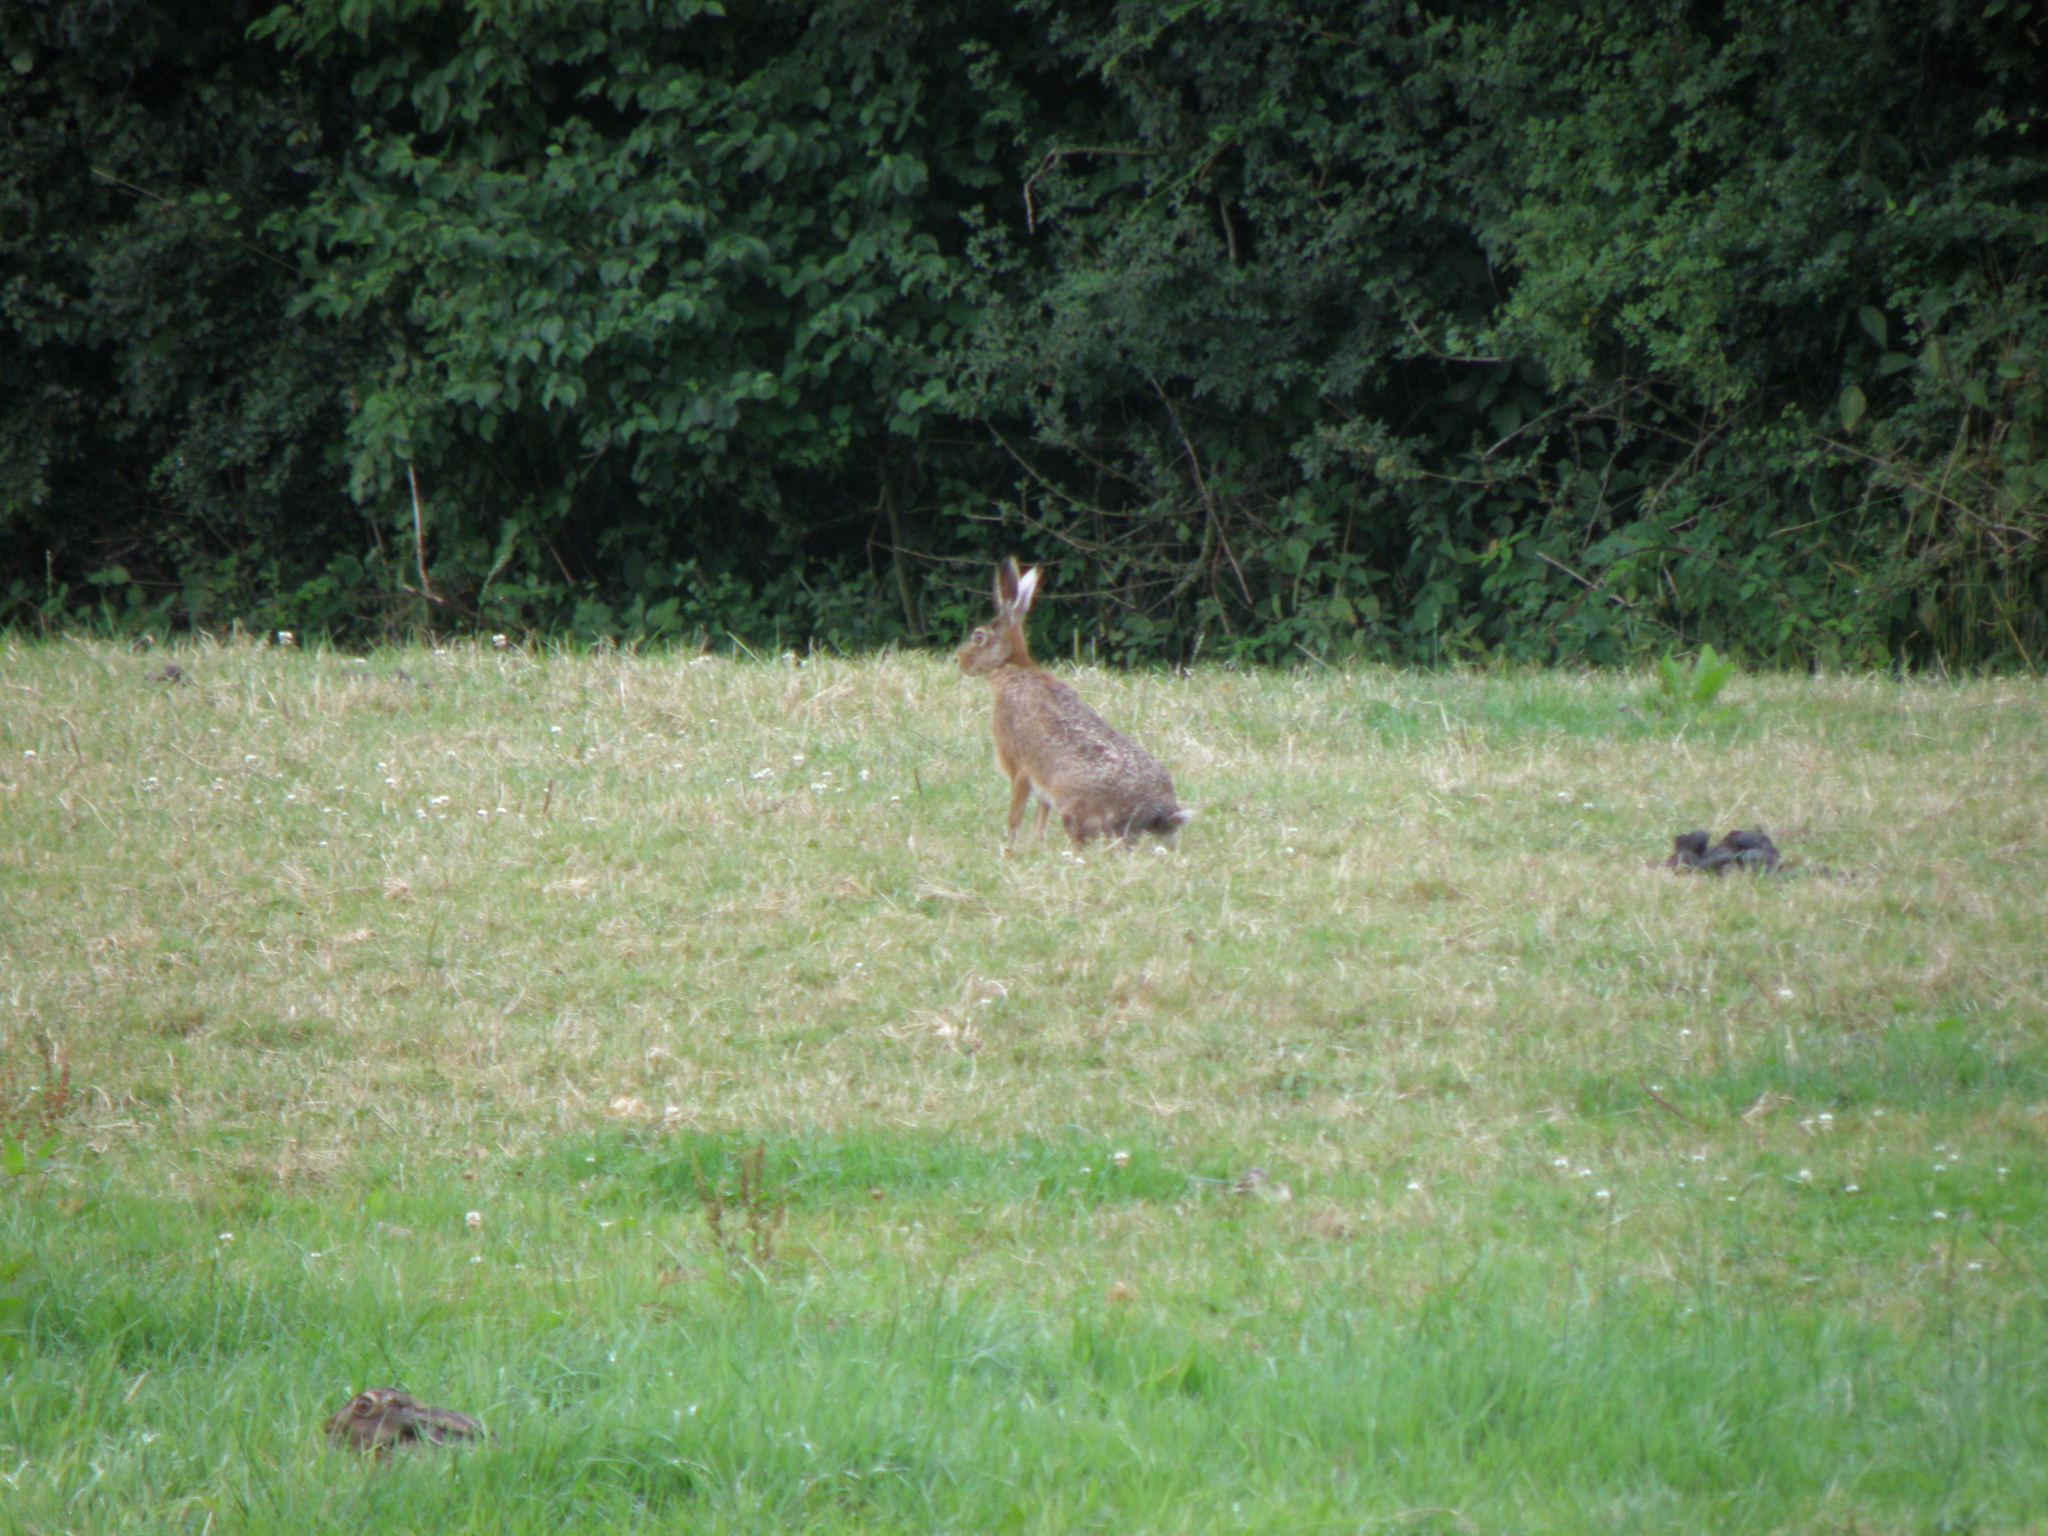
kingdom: Animalia
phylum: Chordata
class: Mammalia
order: Lagomorpha
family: Leporidae
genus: Lepus
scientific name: Lepus europaeus
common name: European hare
